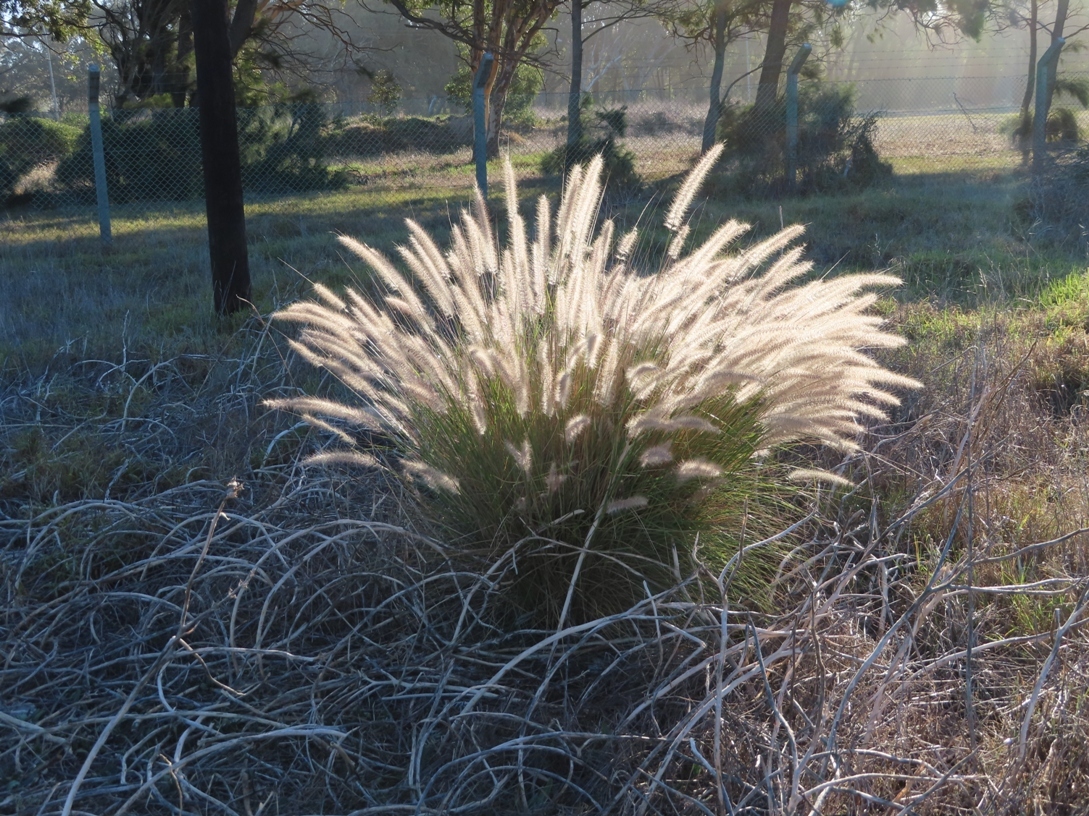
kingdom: Plantae
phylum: Tracheophyta
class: Liliopsida
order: Poales
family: Poaceae
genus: Cenchrus
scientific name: Cenchrus setaceus
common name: Crimson fountaingrass
